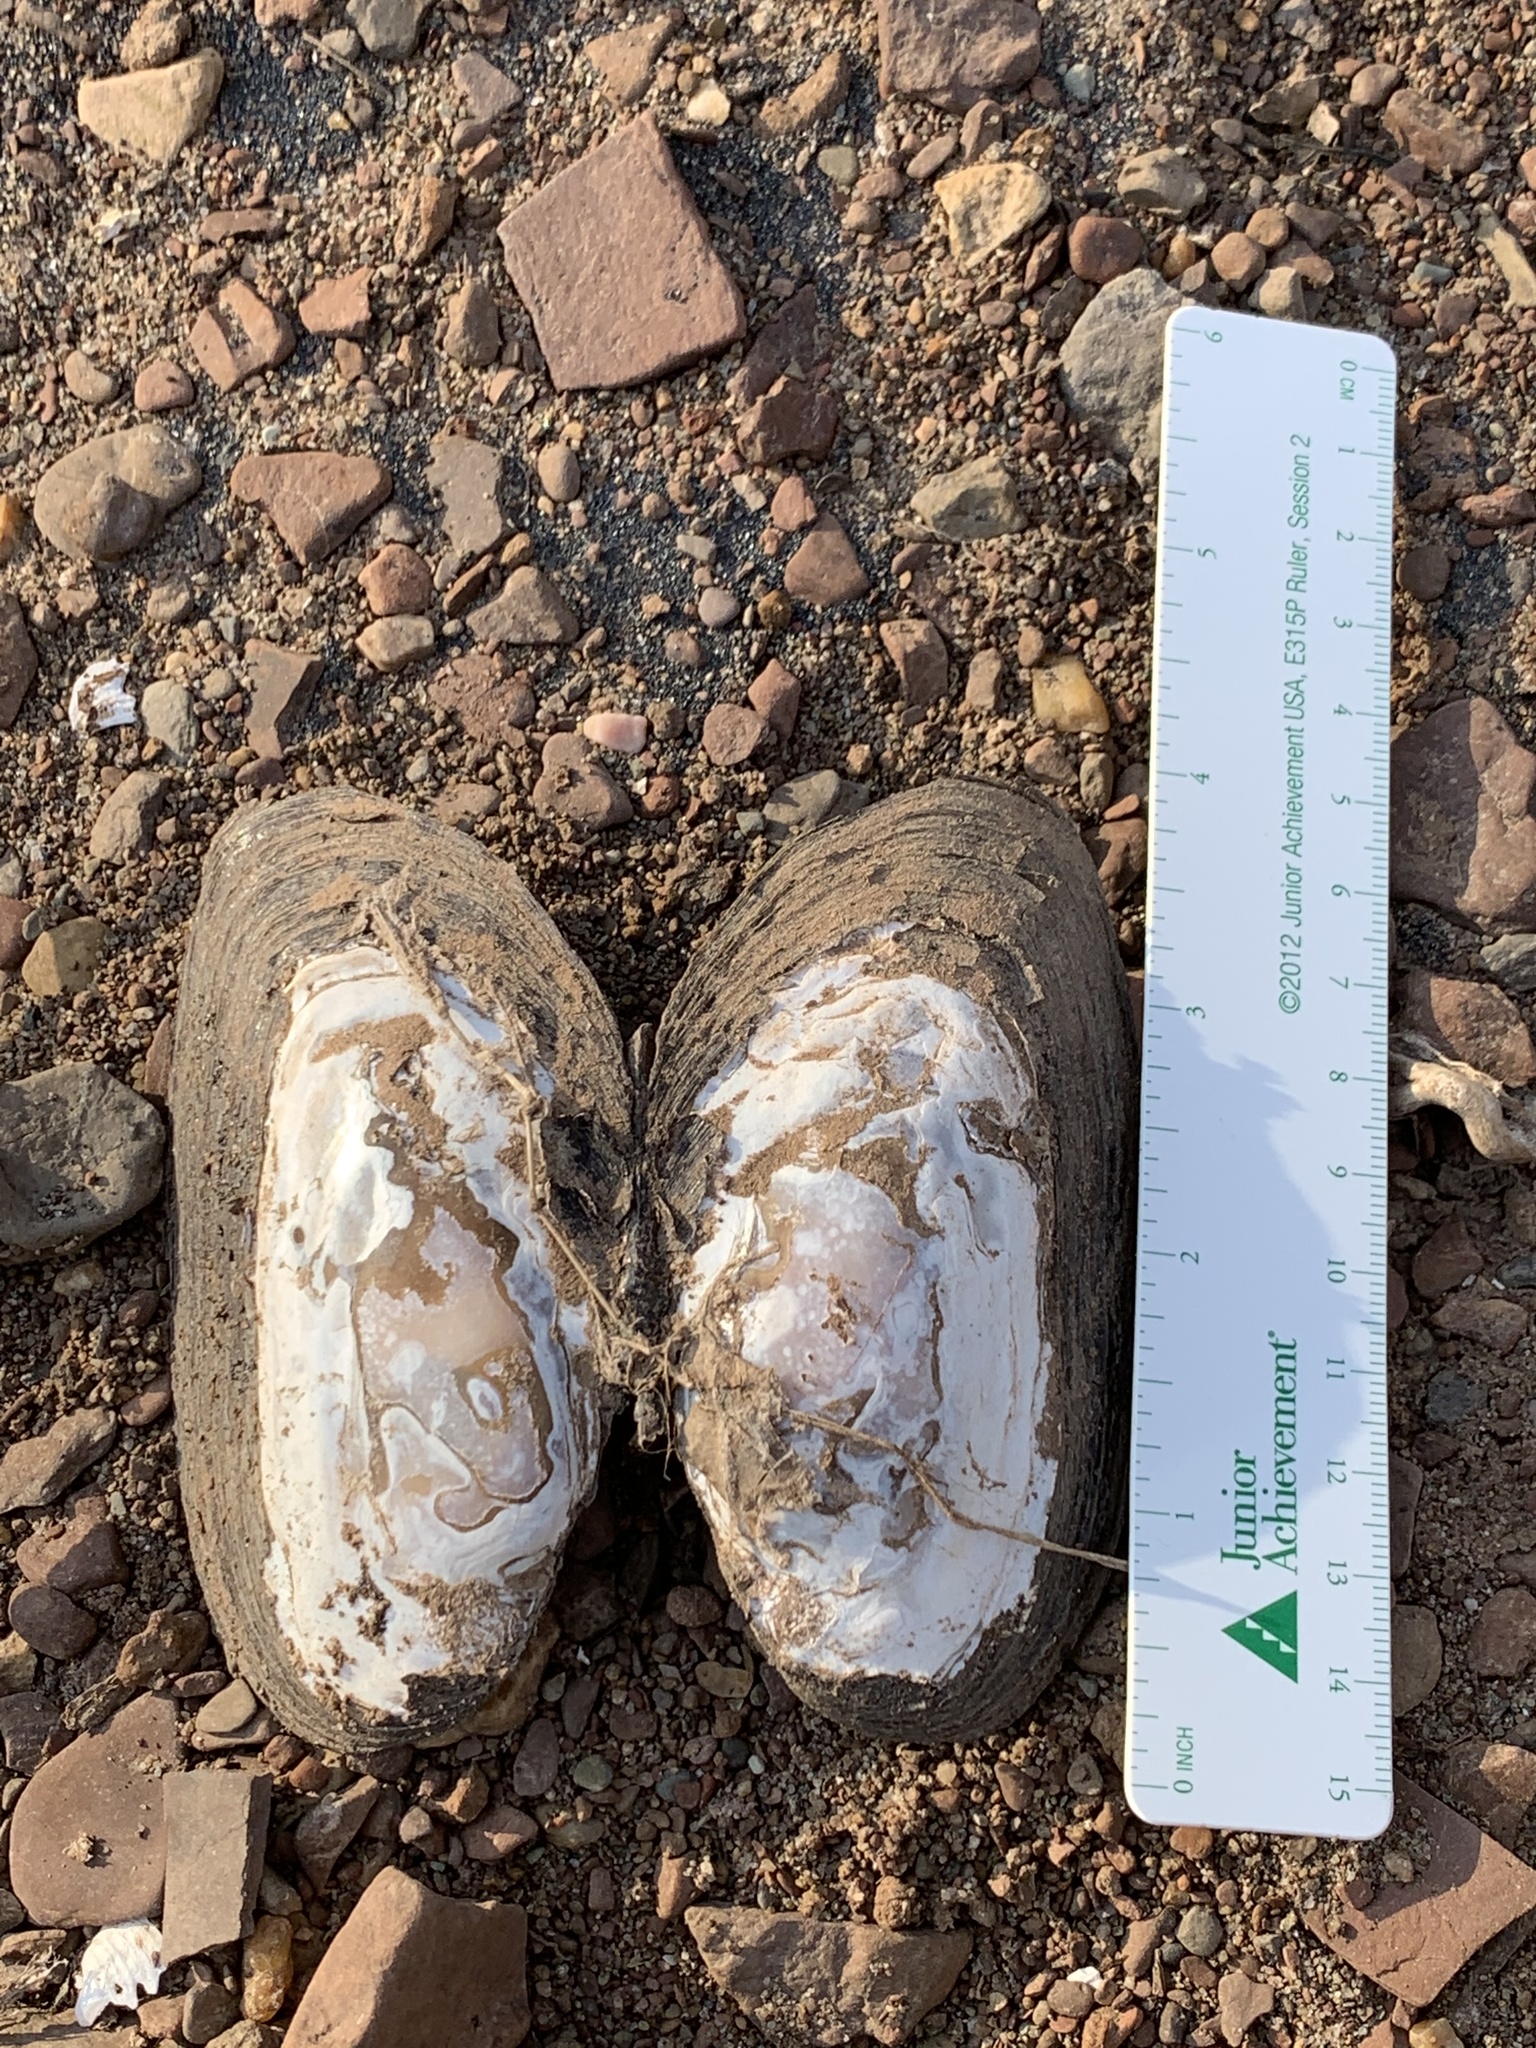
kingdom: Animalia
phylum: Mollusca
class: Bivalvia
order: Unionida
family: Unionidae
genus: Elliptio
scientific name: Elliptio complanata
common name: Eastern elliptio
